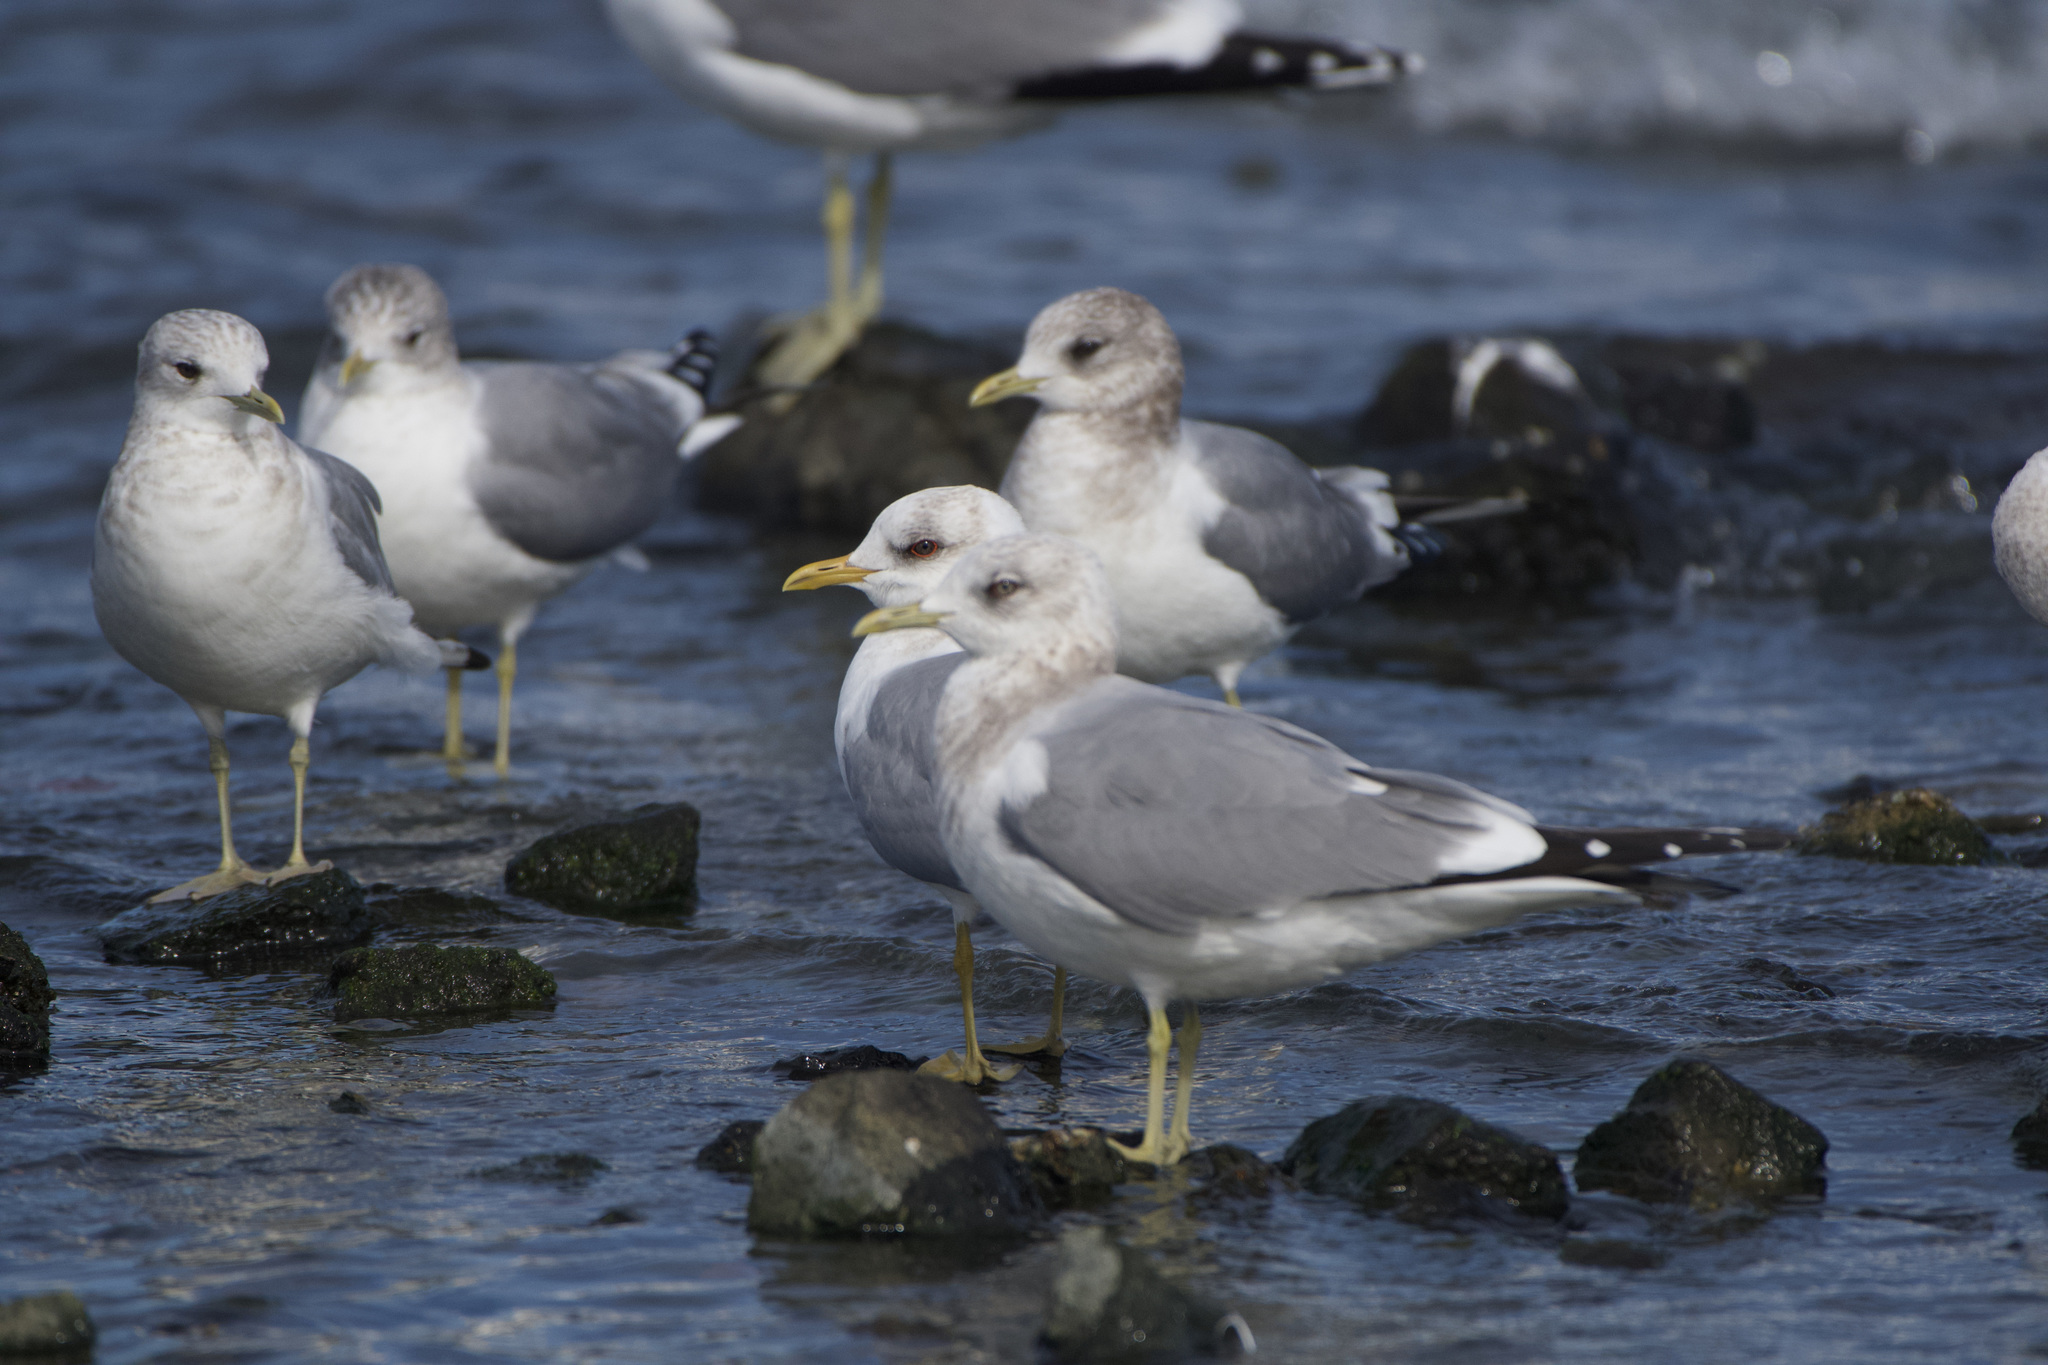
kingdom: Animalia
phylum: Chordata
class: Aves
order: Charadriiformes
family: Laridae
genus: Larus
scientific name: Larus brachyrhynchus
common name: Short-billed gull
